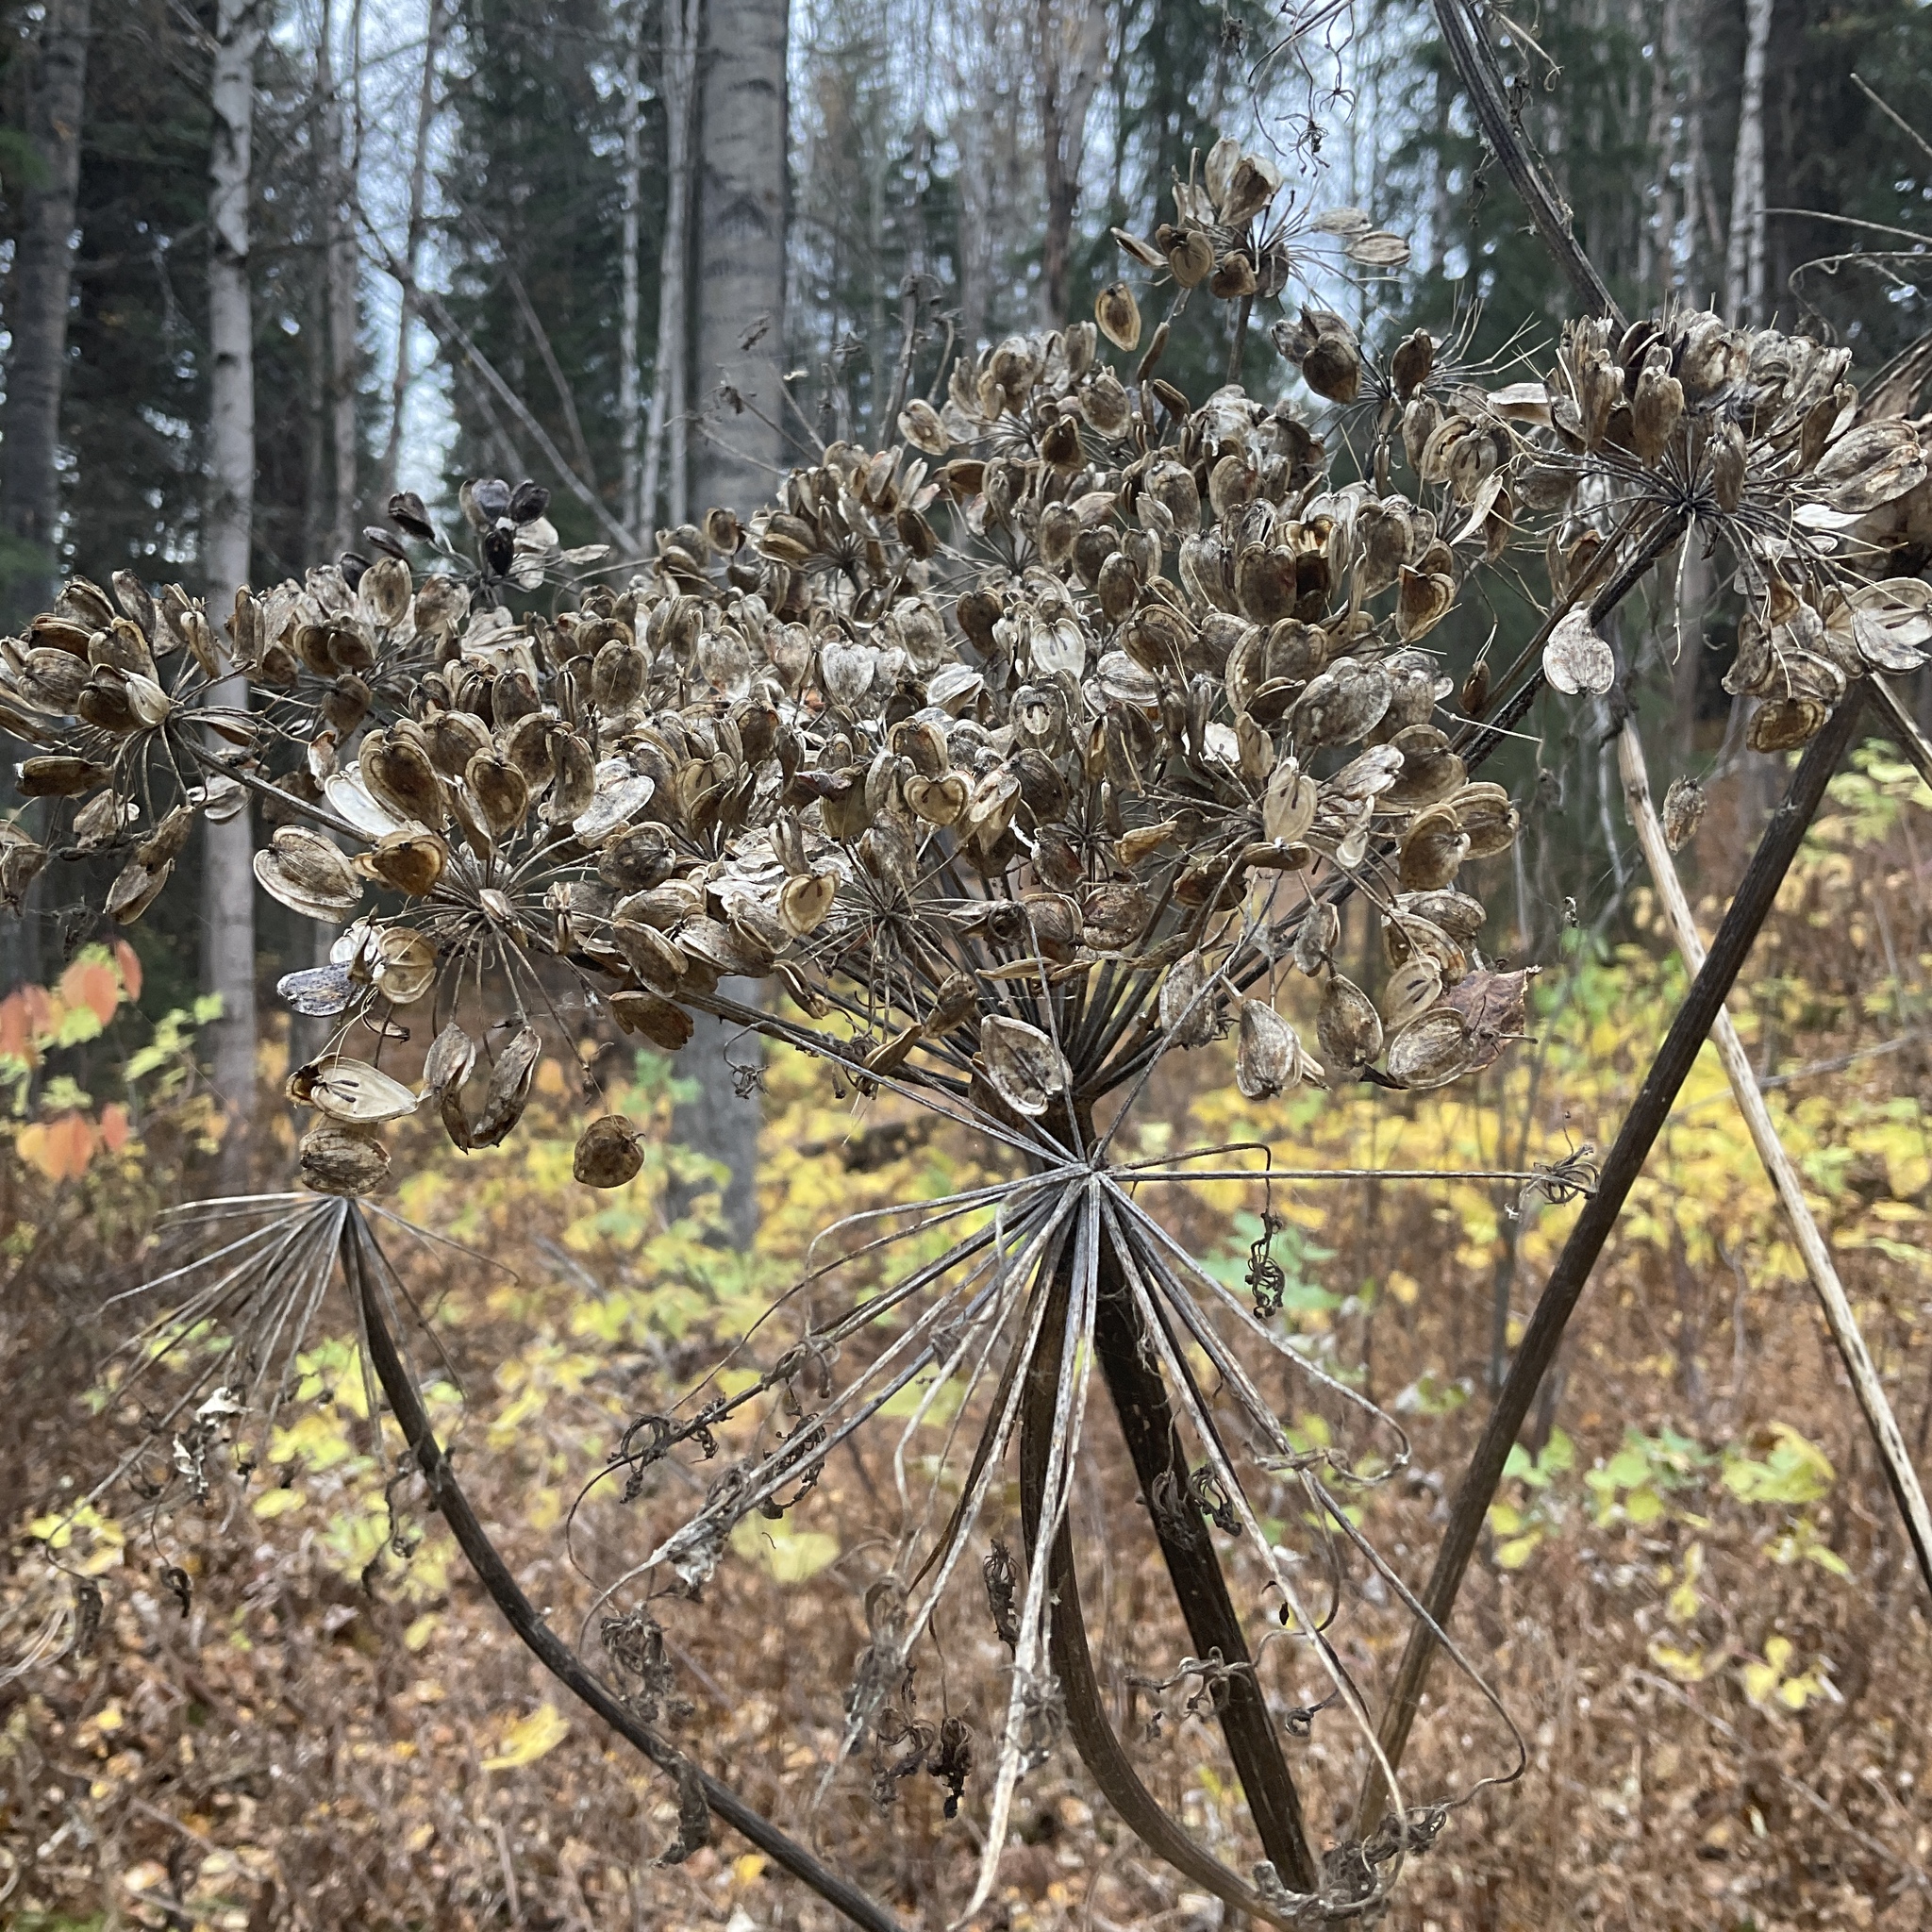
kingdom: Plantae
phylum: Tracheophyta
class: Magnoliopsida
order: Apiales
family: Apiaceae
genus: Heracleum
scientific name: Heracleum maximum
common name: American cow parsnip
